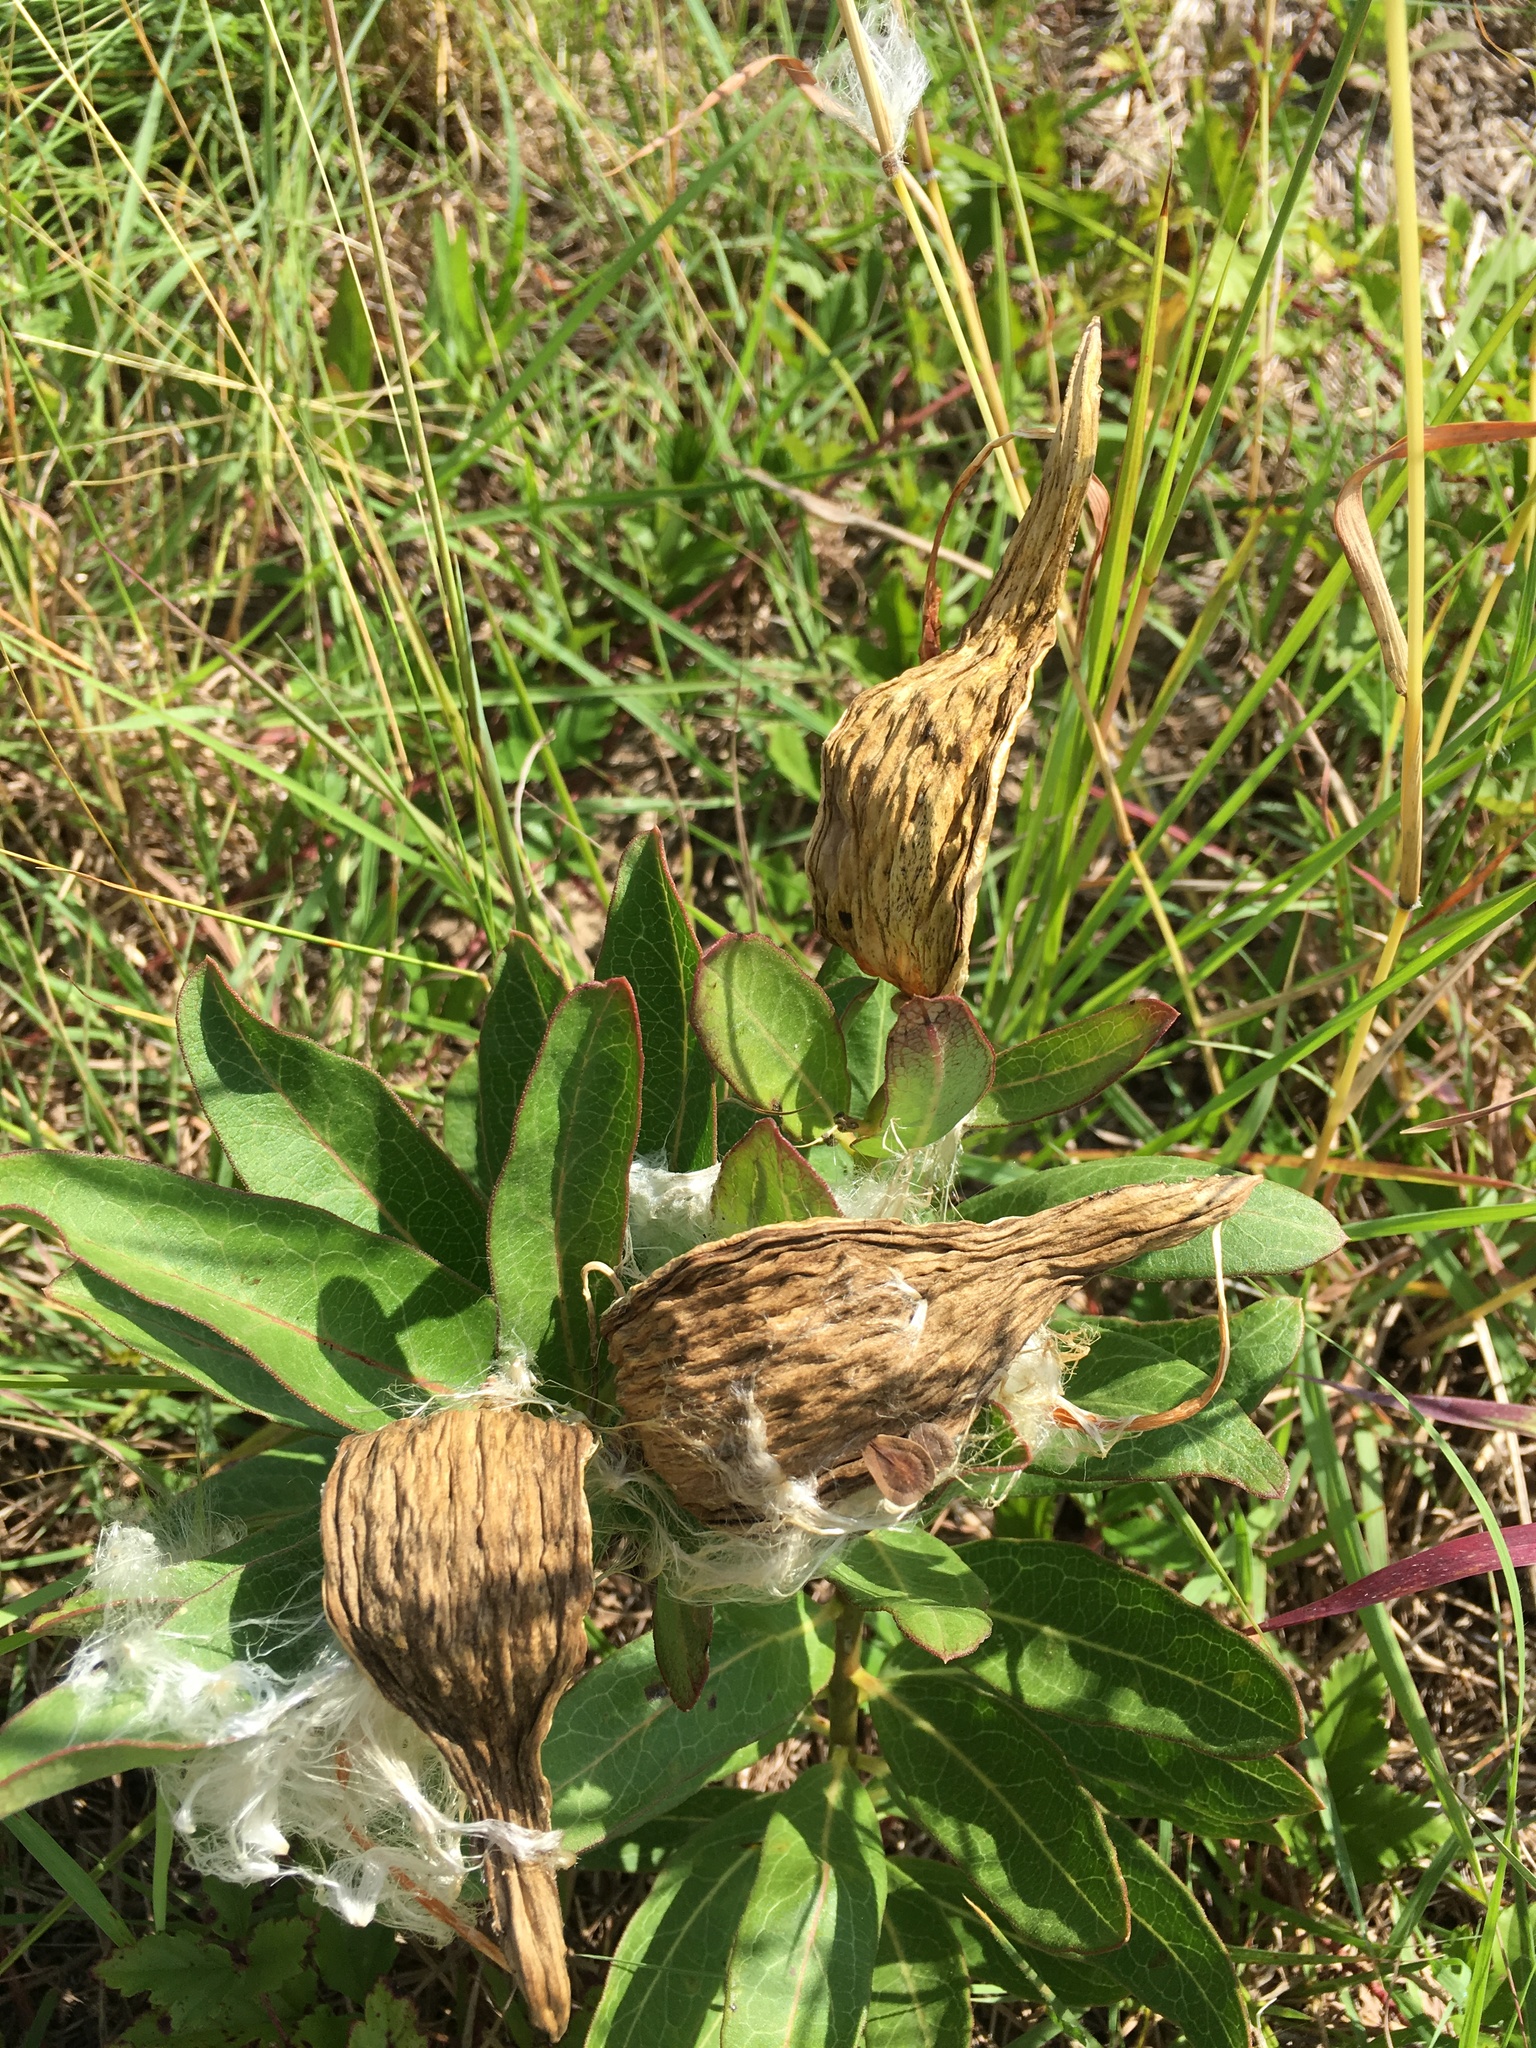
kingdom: Plantae
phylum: Tracheophyta
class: Magnoliopsida
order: Gentianales
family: Apocynaceae
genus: Asclepias
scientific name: Asclepias viridis
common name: Antelope-horns
